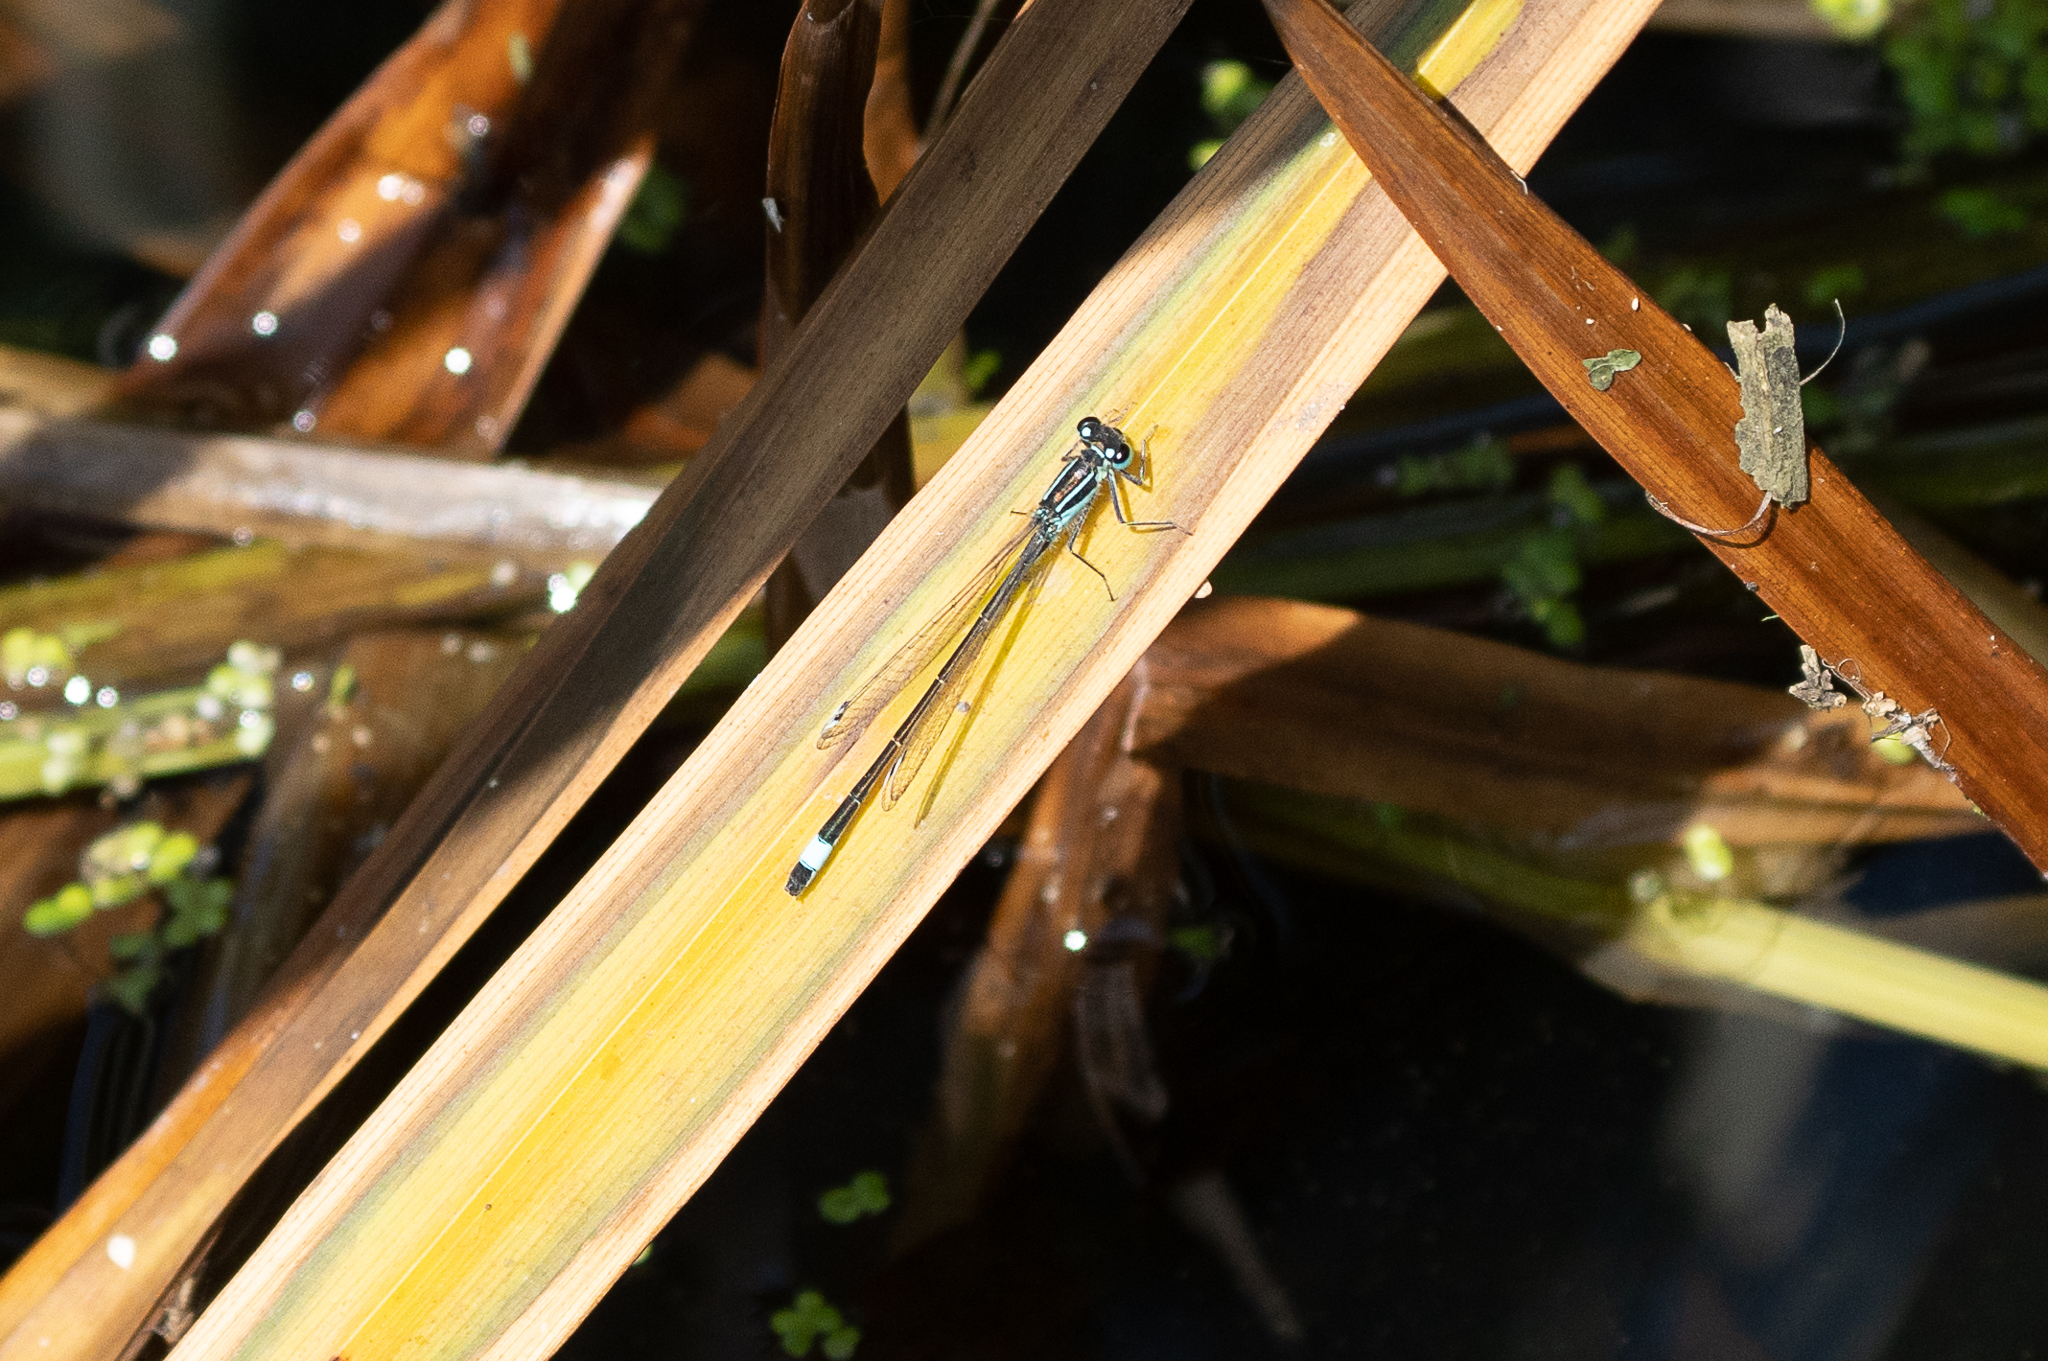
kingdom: Animalia
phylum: Arthropoda
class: Insecta
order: Odonata
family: Coenagrionidae
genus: Ischnura
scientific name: Ischnura elegans
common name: Blue-tailed damselfly
